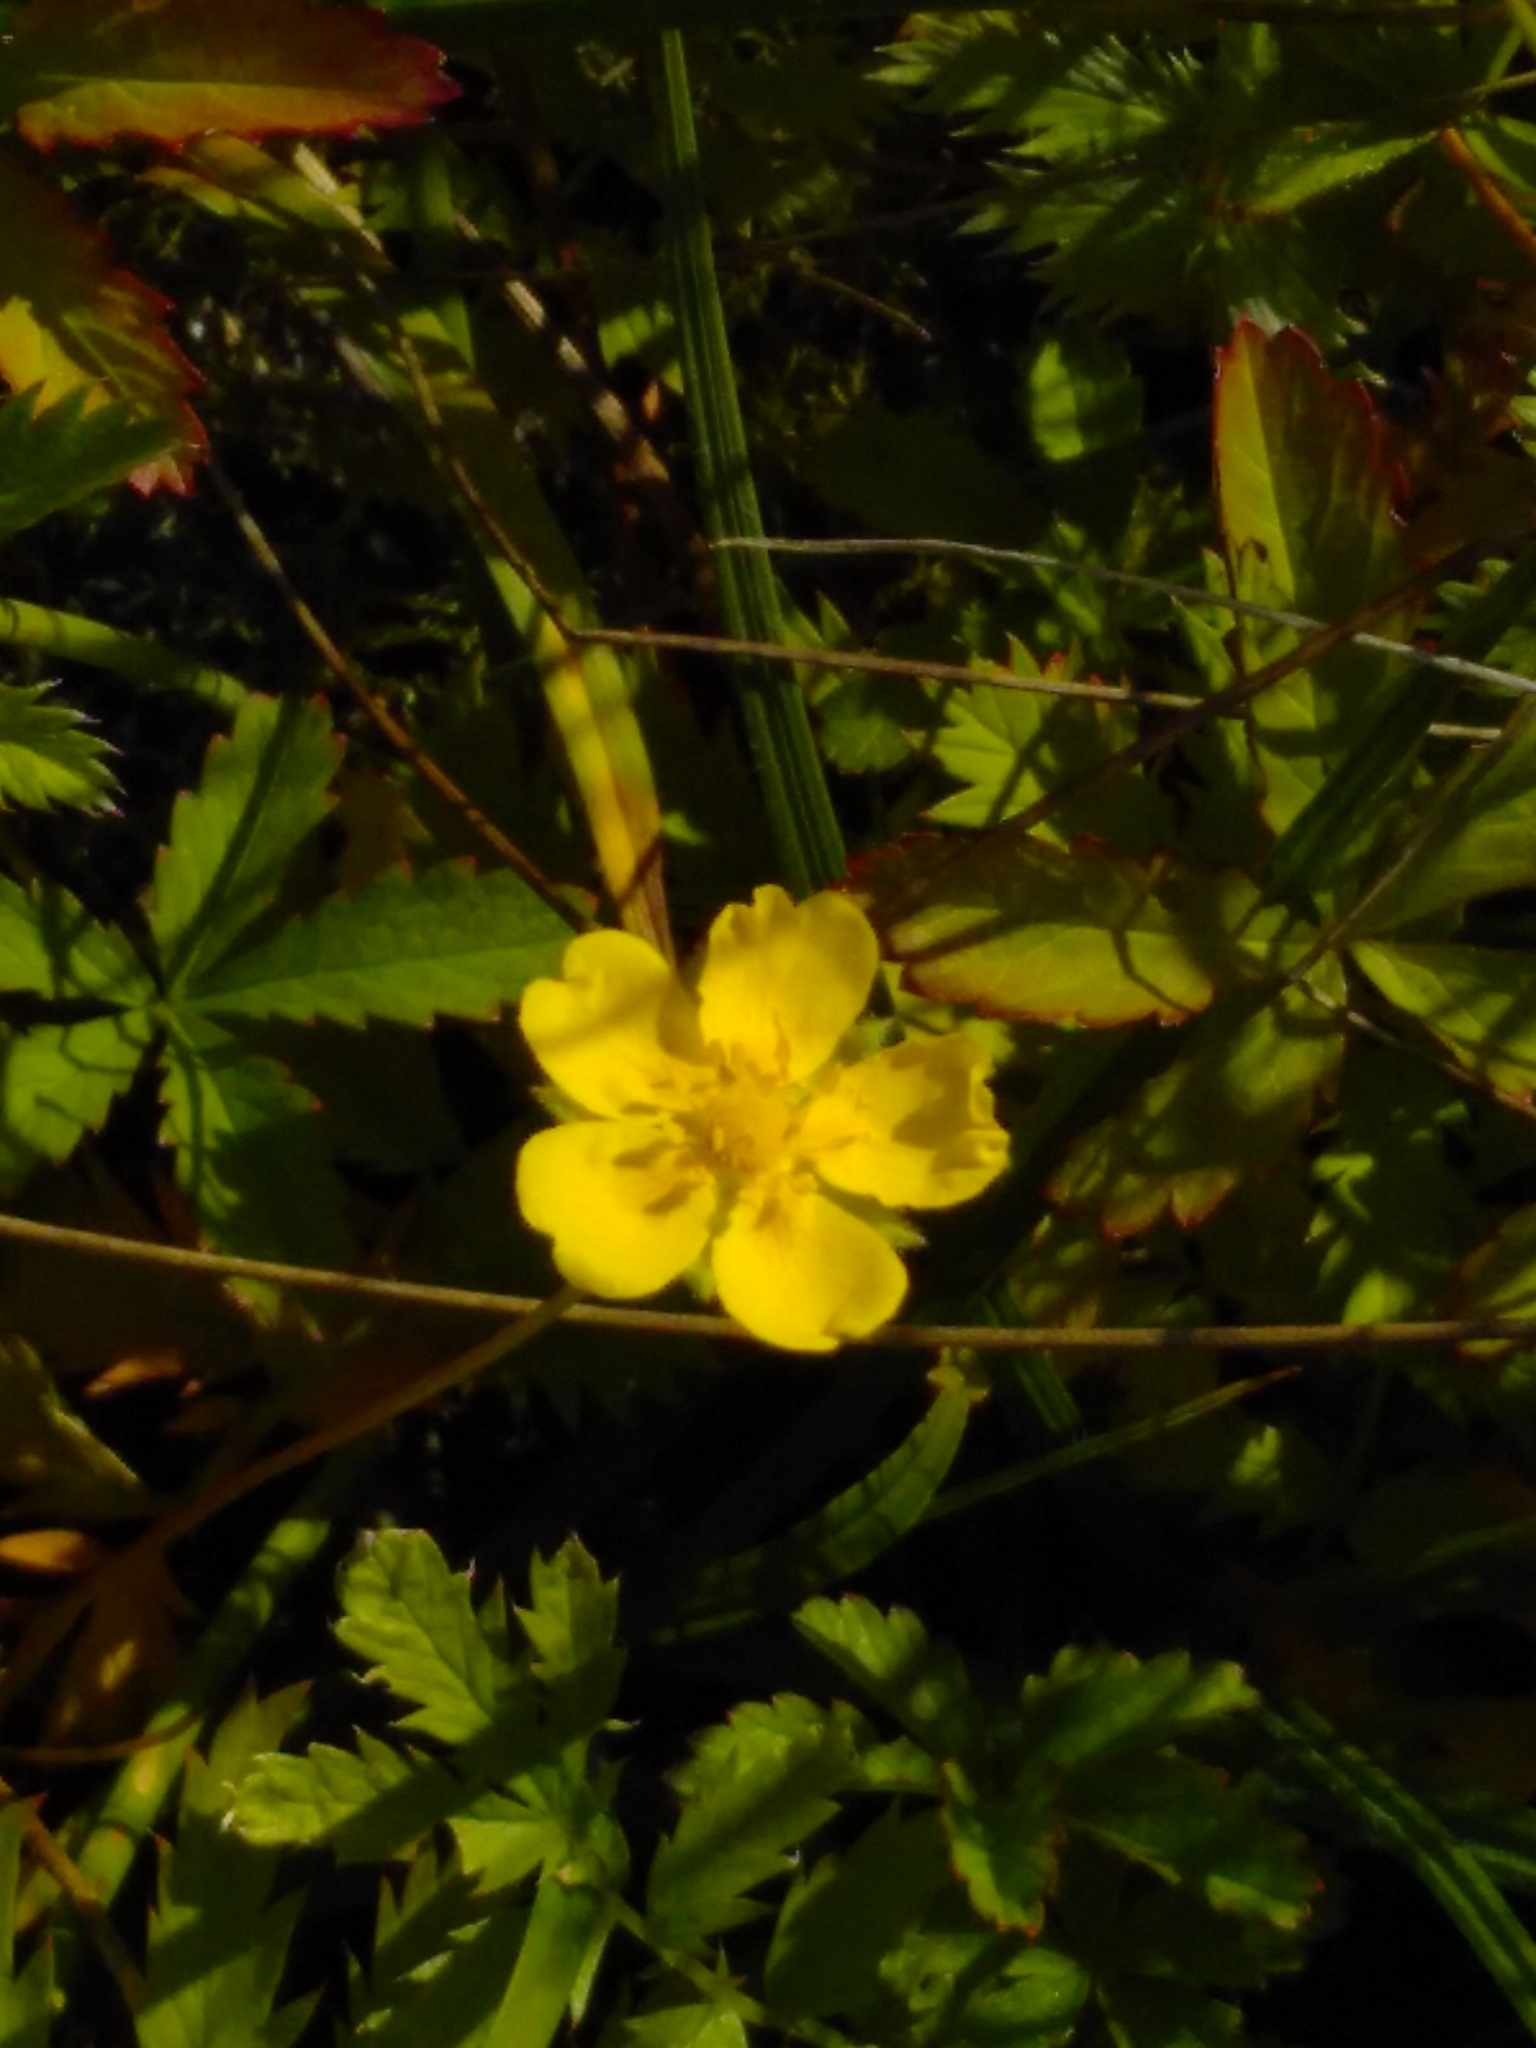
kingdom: Plantae
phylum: Tracheophyta
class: Magnoliopsida
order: Rosales
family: Rosaceae
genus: Potentilla
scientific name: Potentilla reptans
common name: Creeping cinquefoil
